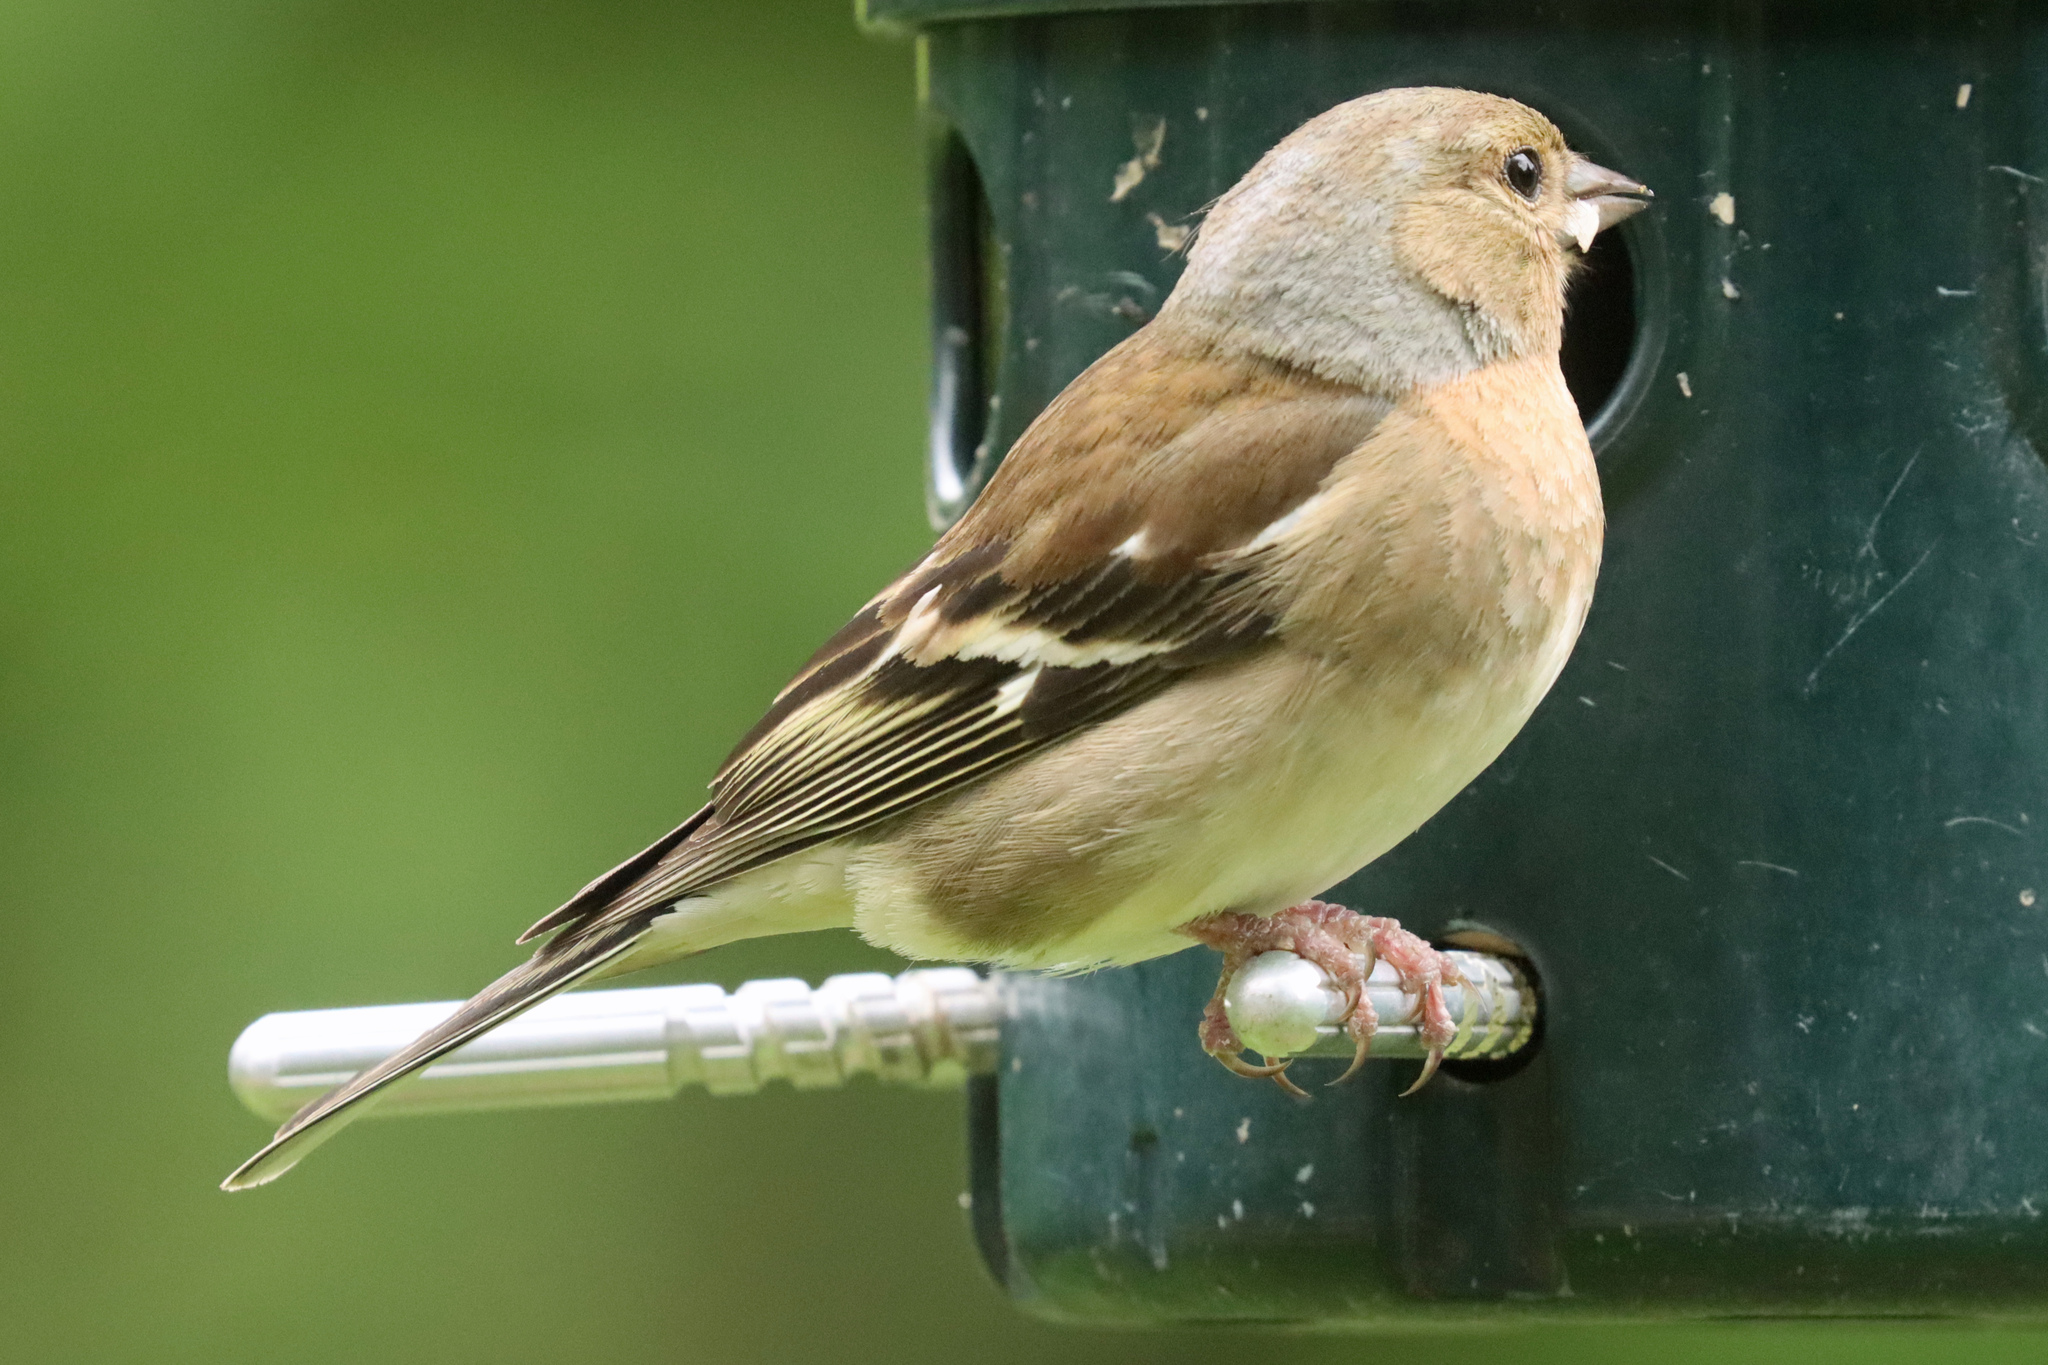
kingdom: Animalia
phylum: Chordata
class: Aves
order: Passeriformes
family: Fringillidae
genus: Fringilla
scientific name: Fringilla coelebs
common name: Common chaffinch
